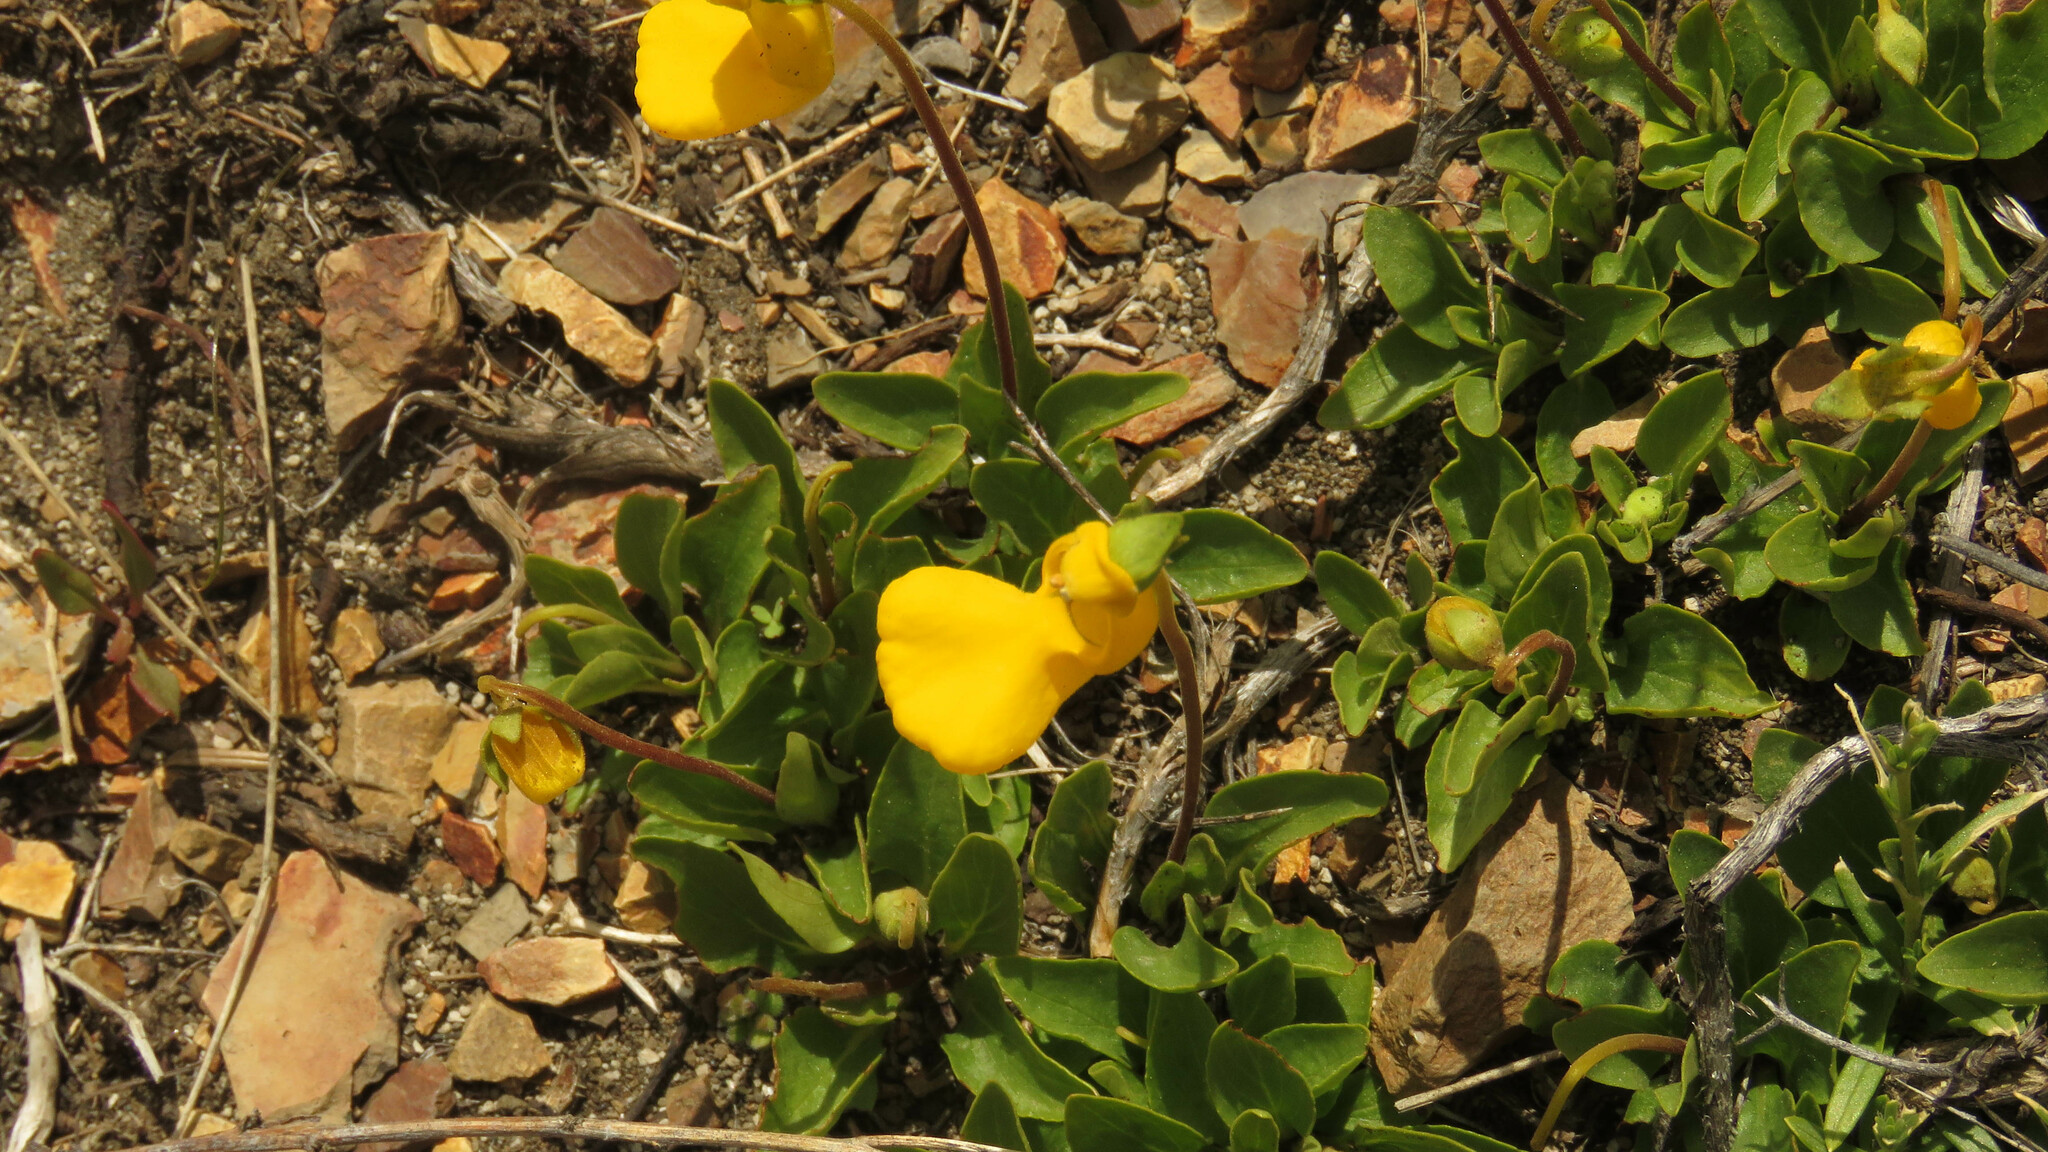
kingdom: Plantae
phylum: Tracheophyta
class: Magnoliopsida
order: Lamiales
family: Calceolariaceae
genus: Calceolaria
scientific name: Calceolaria polyrhiza
